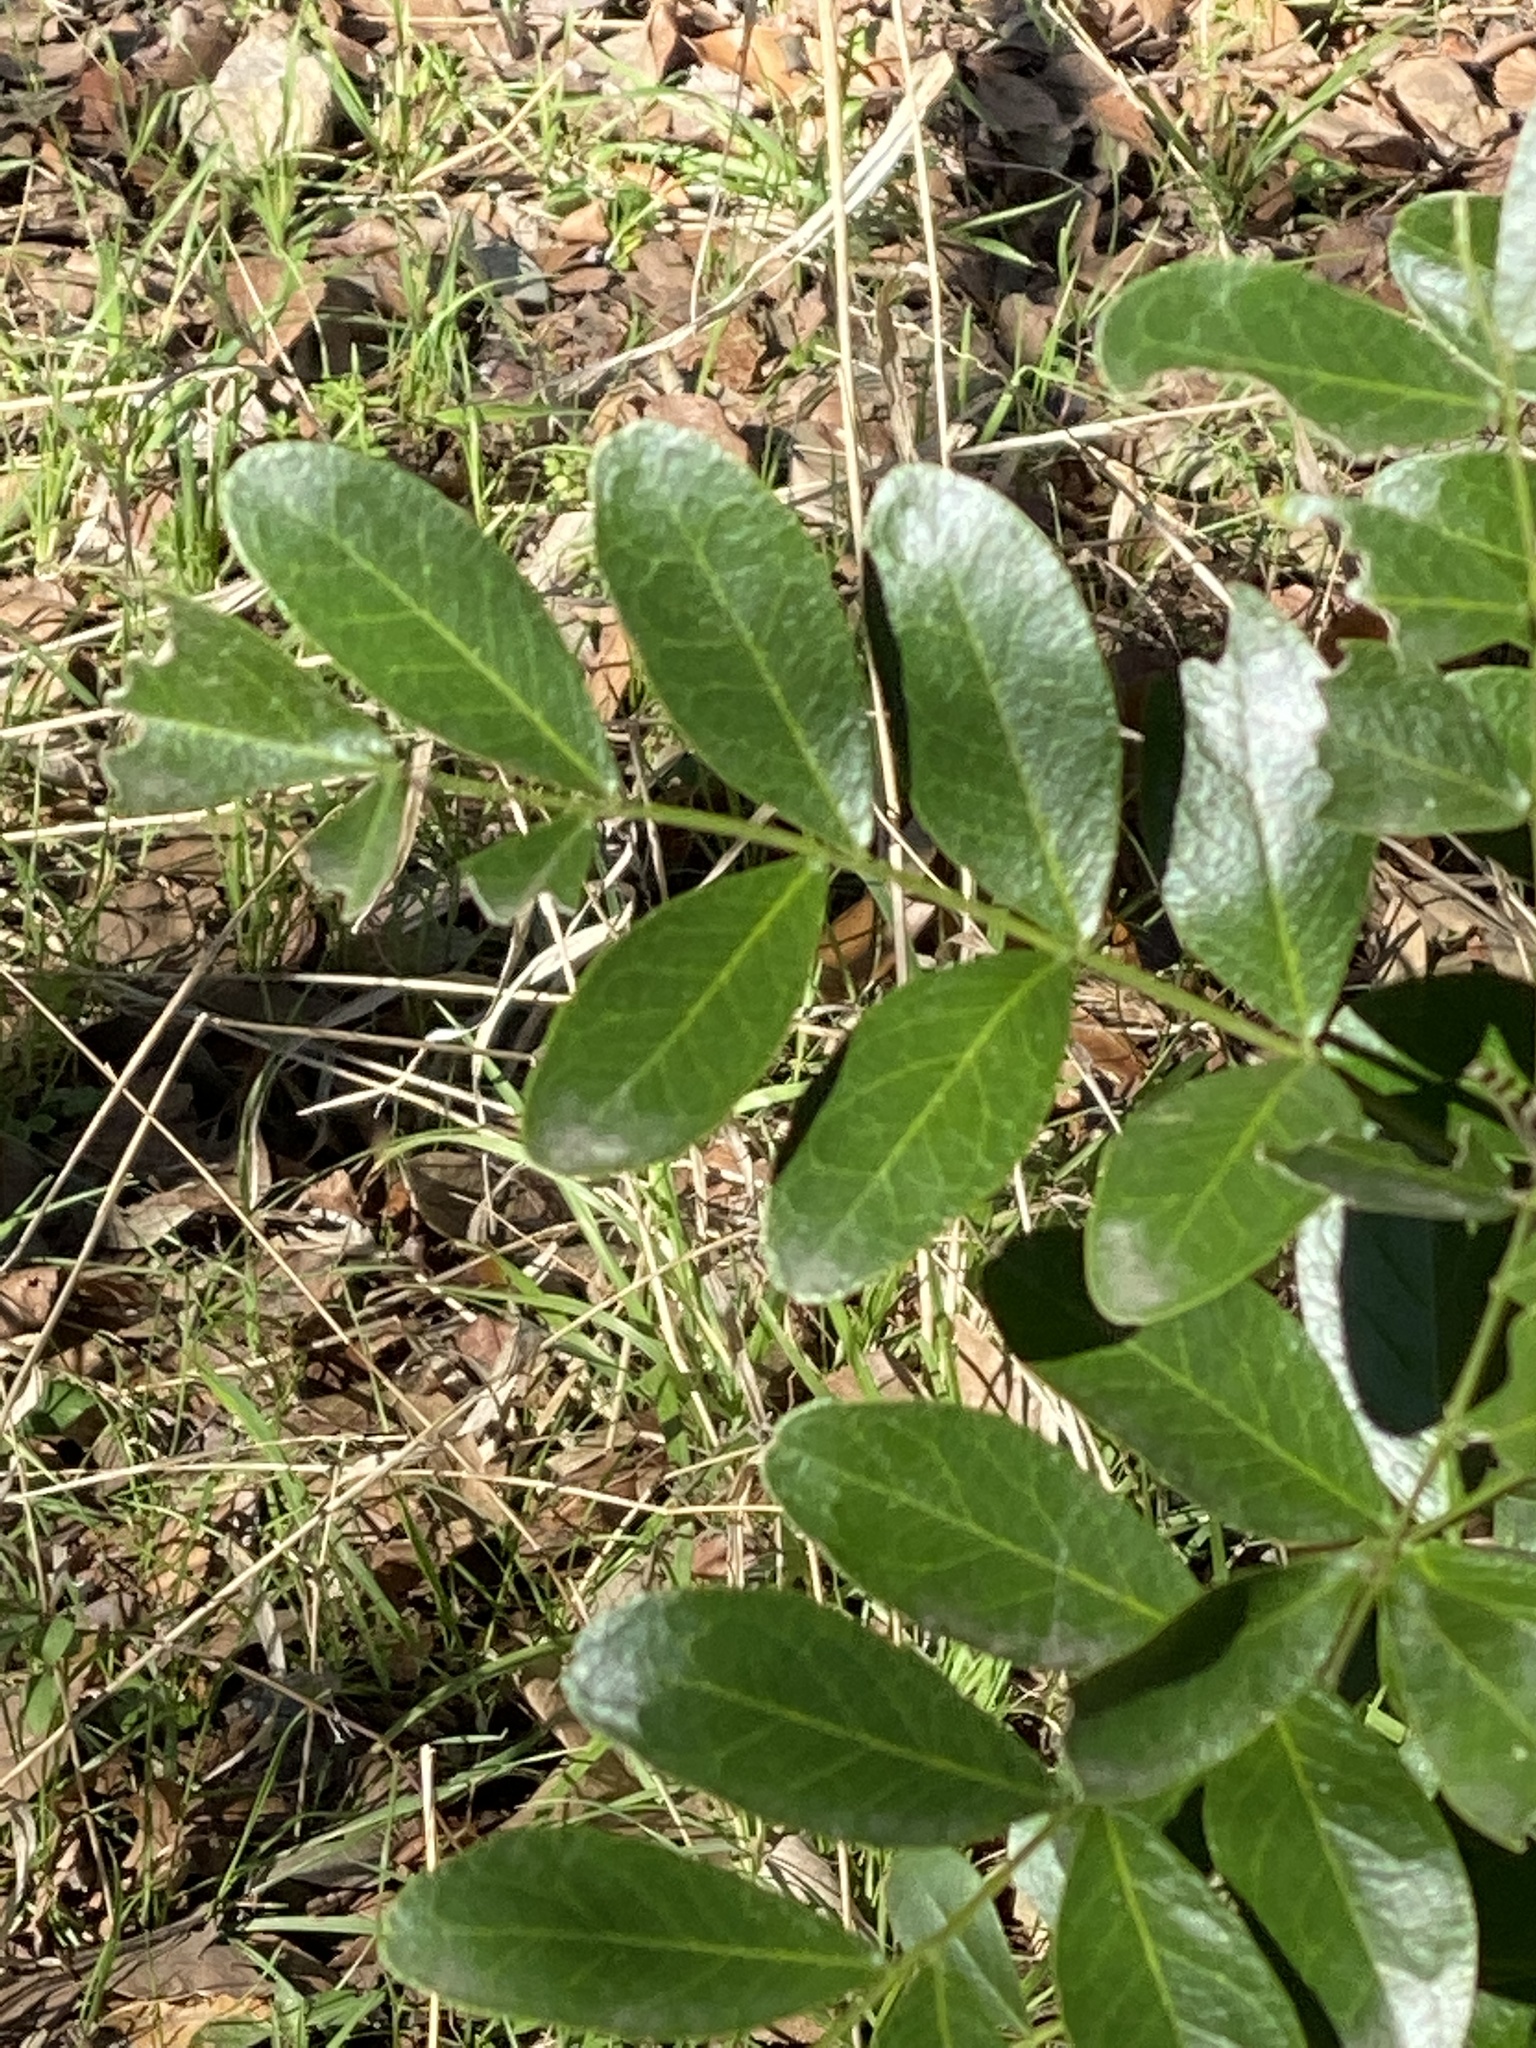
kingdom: Plantae
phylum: Tracheophyta
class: Magnoliopsida
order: Fabales
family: Fabaceae
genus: Dermatophyllum
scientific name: Dermatophyllum secundiflorum
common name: Texas-mountain-laurel
